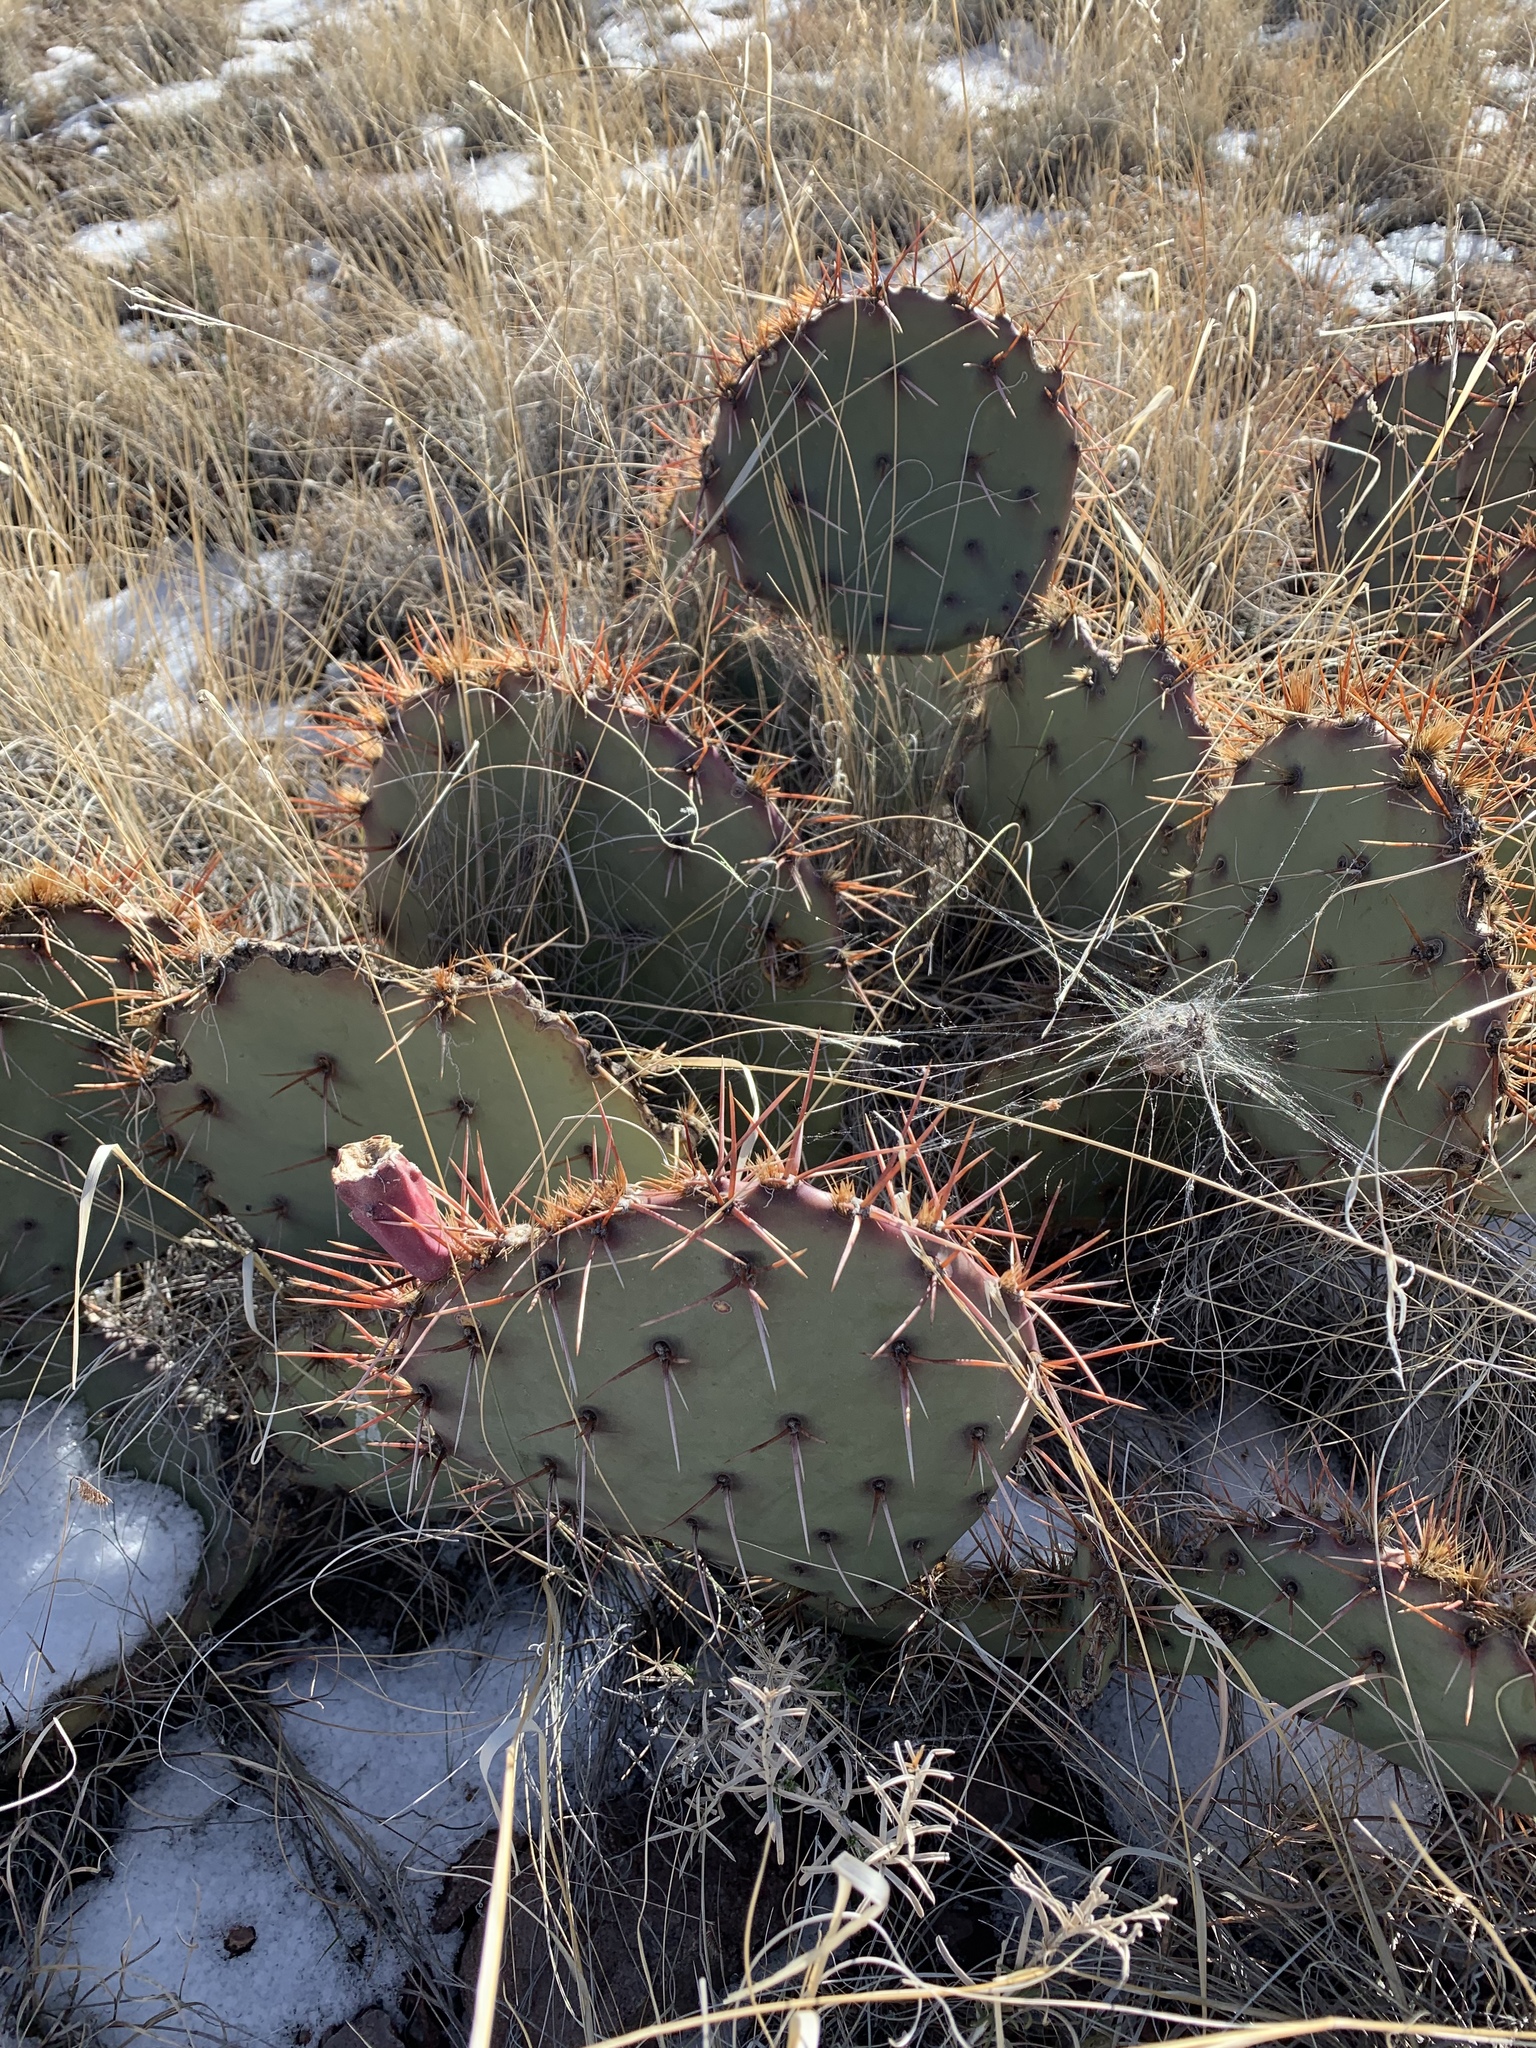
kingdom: Plantae
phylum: Tracheophyta
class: Magnoliopsida
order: Caryophyllales
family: Cactaceae
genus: Opuntia
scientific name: Opuntia macrocentra
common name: Purple prickly-pear
